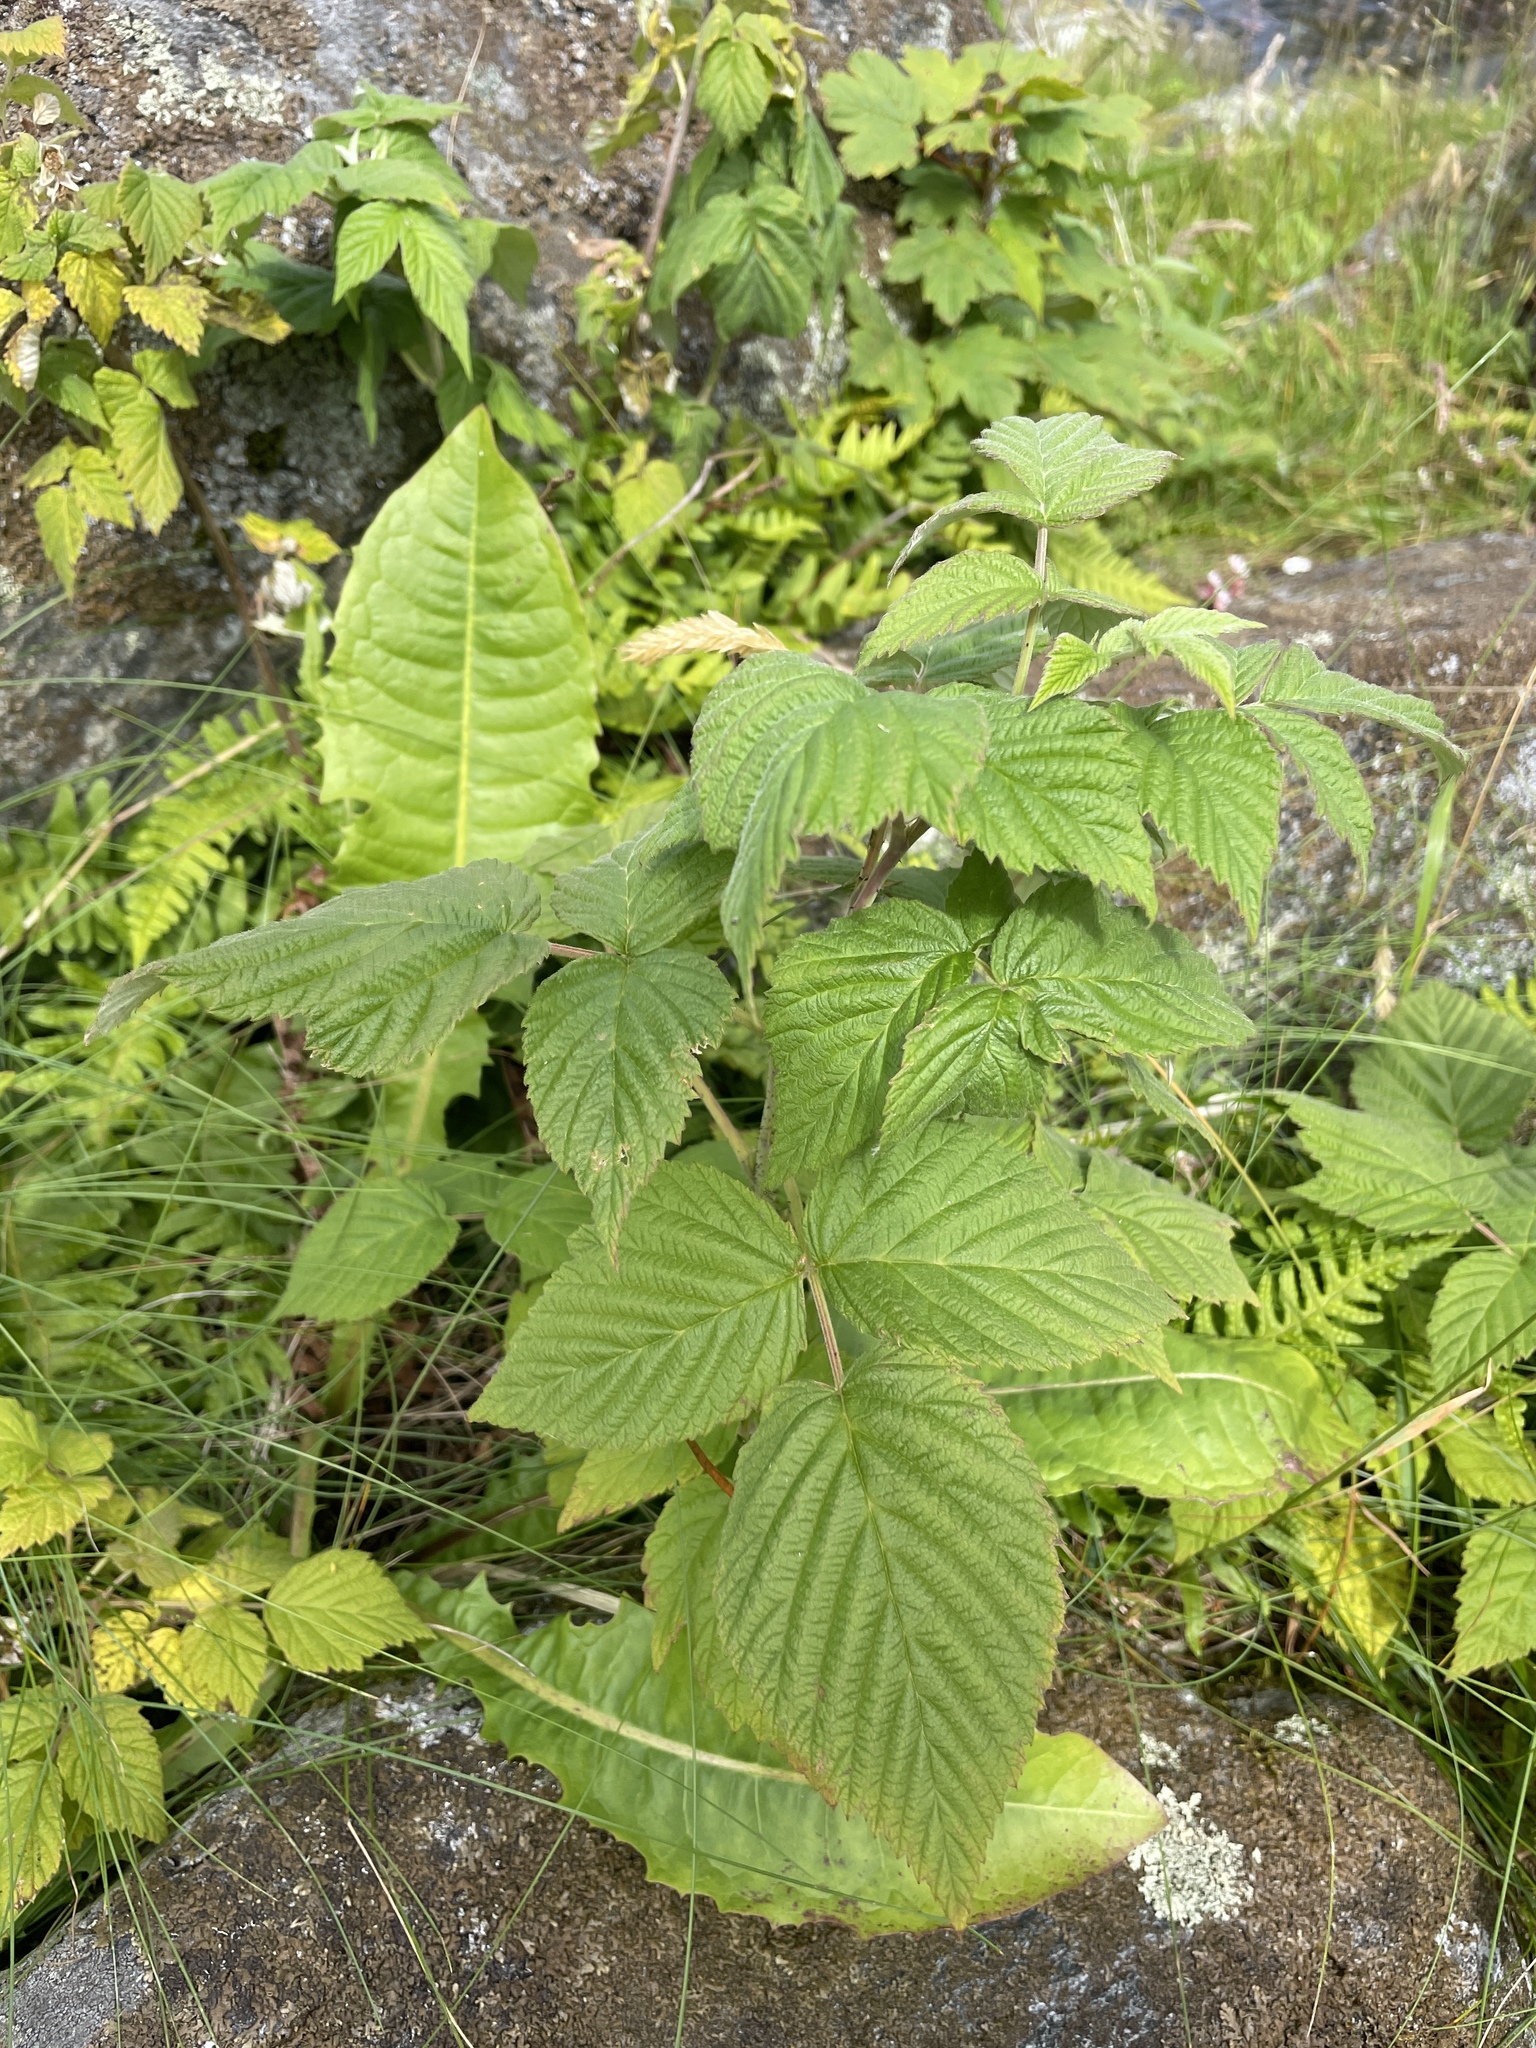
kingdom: Plantae
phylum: Tracheophyta
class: Magnoliopsida
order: Rosales
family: Rosaceae
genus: Rubus
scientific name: Rubus idaeus
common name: Raspberry
